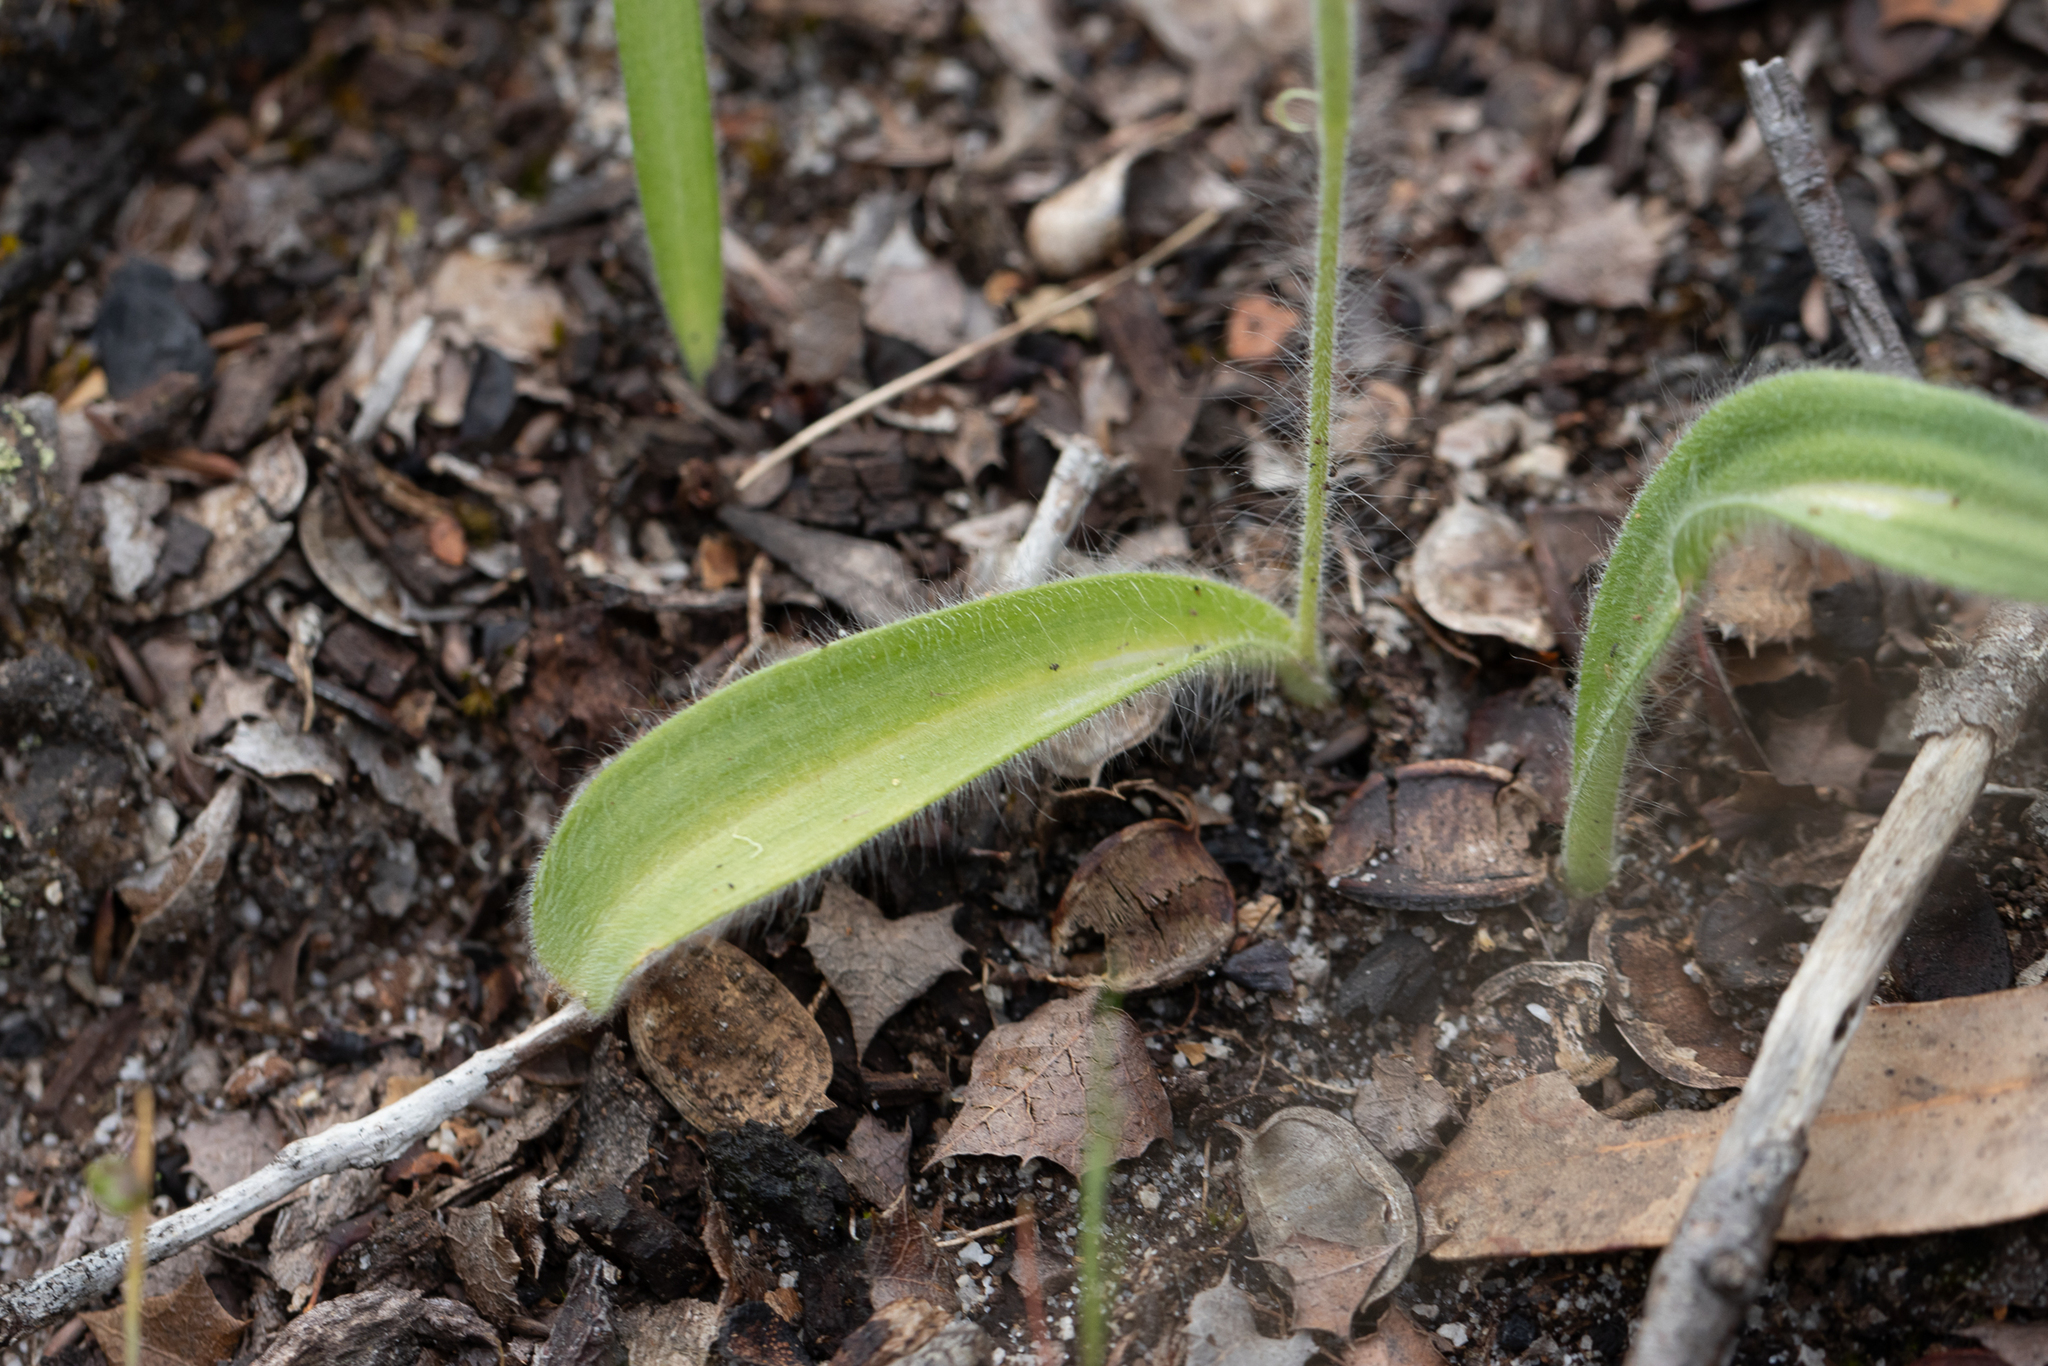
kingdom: Plantae
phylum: Tracheophyta
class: Liliopsida
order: Asparagales
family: Orchidaceae
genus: Caladenia
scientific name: Caladenia marginata
